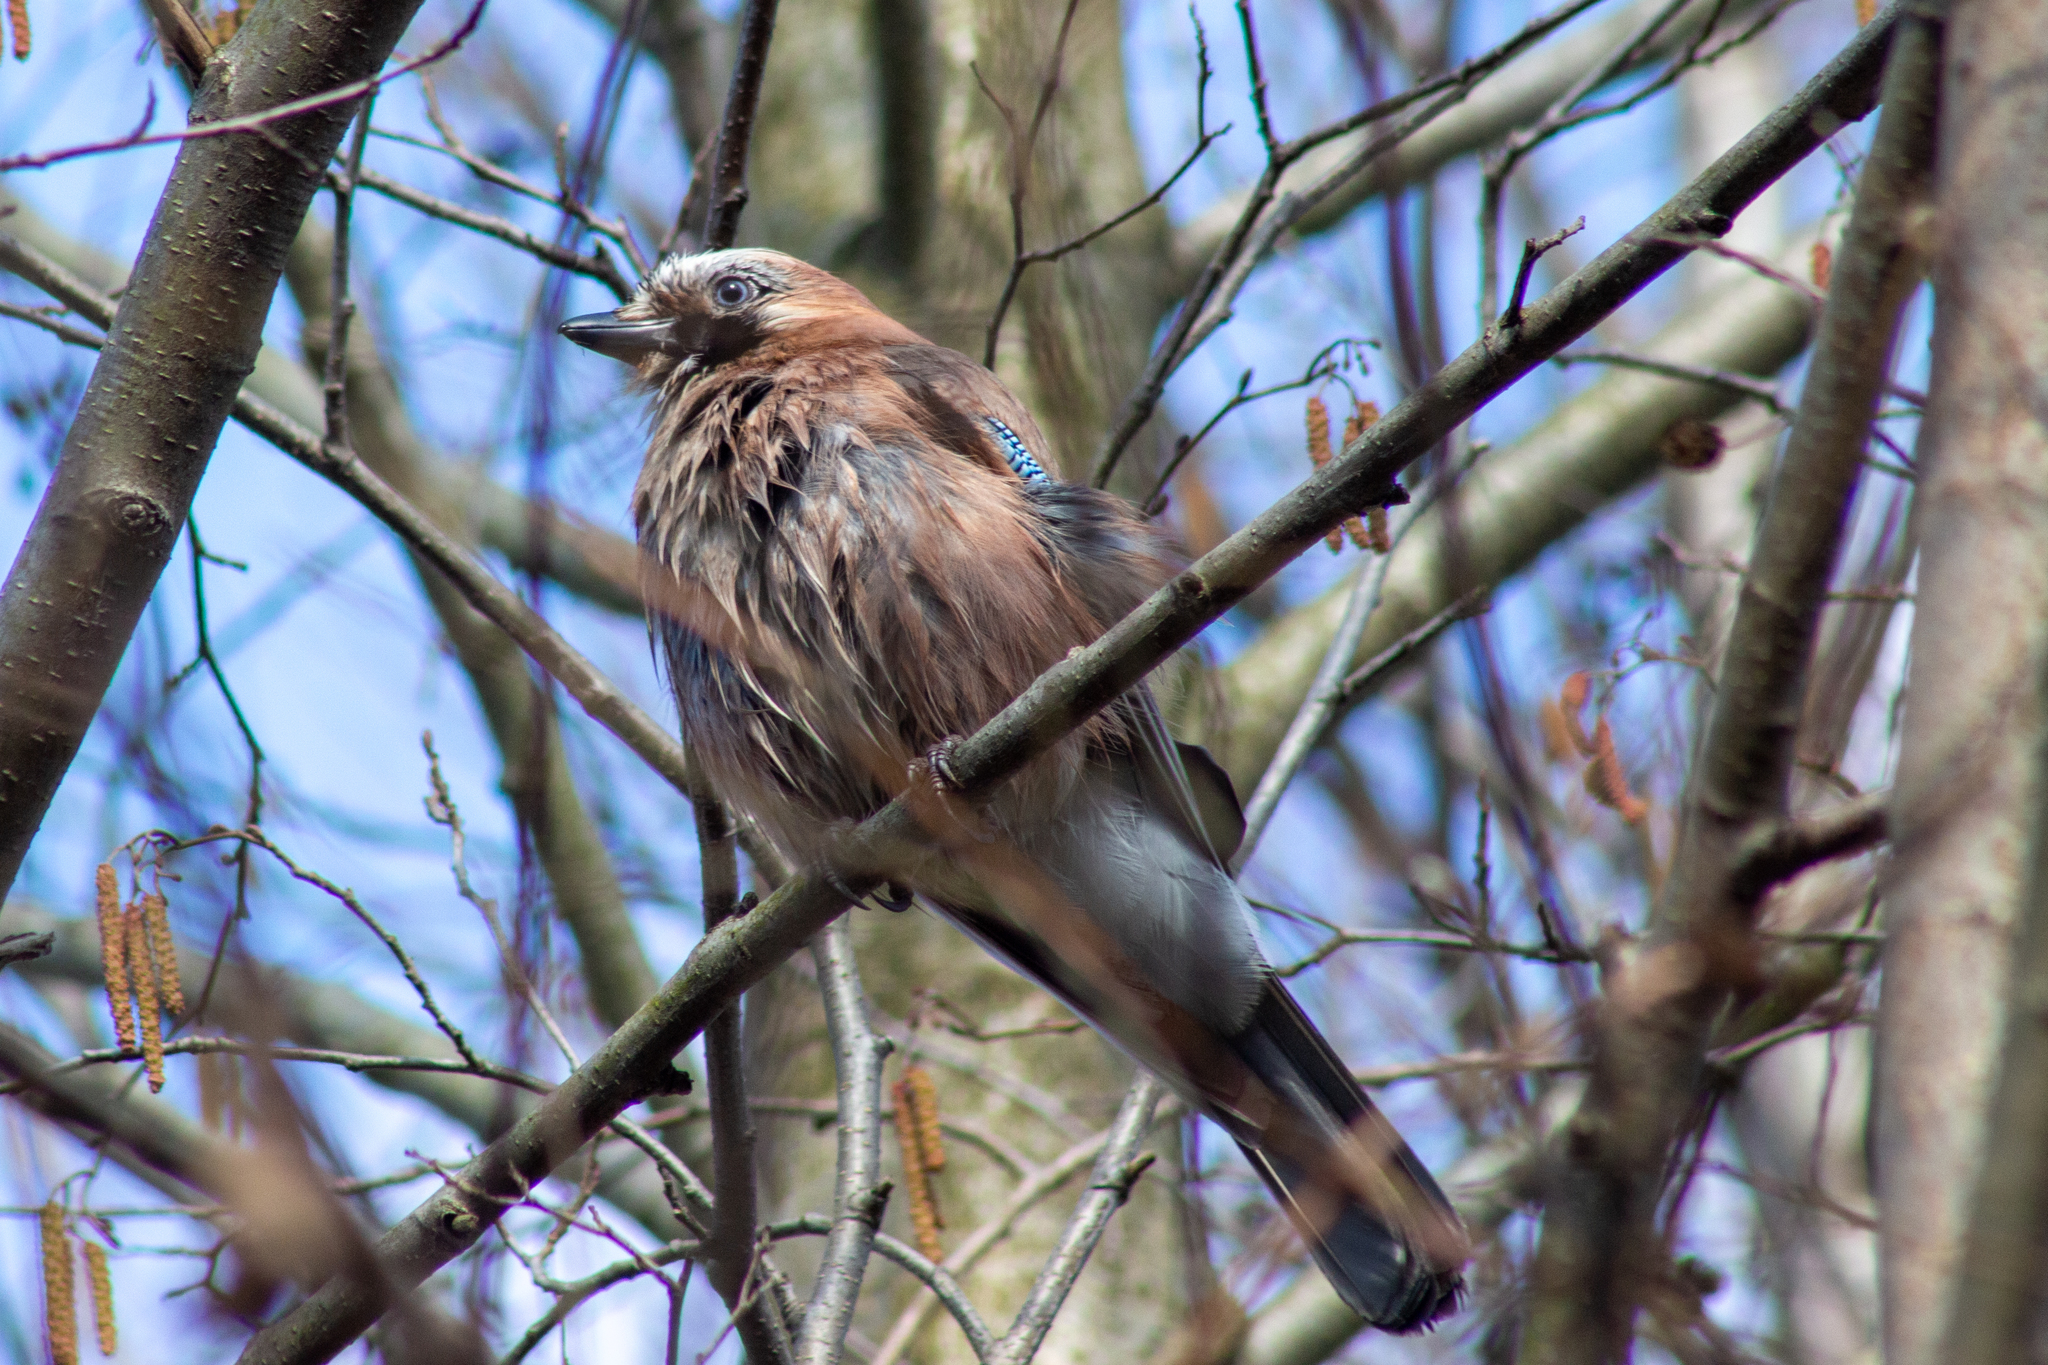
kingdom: Animalia
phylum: Chordata
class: Aves
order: Passeriformes
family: Corvidae
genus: Garrulus
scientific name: Garrulus glandarius
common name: Eurasian jay
